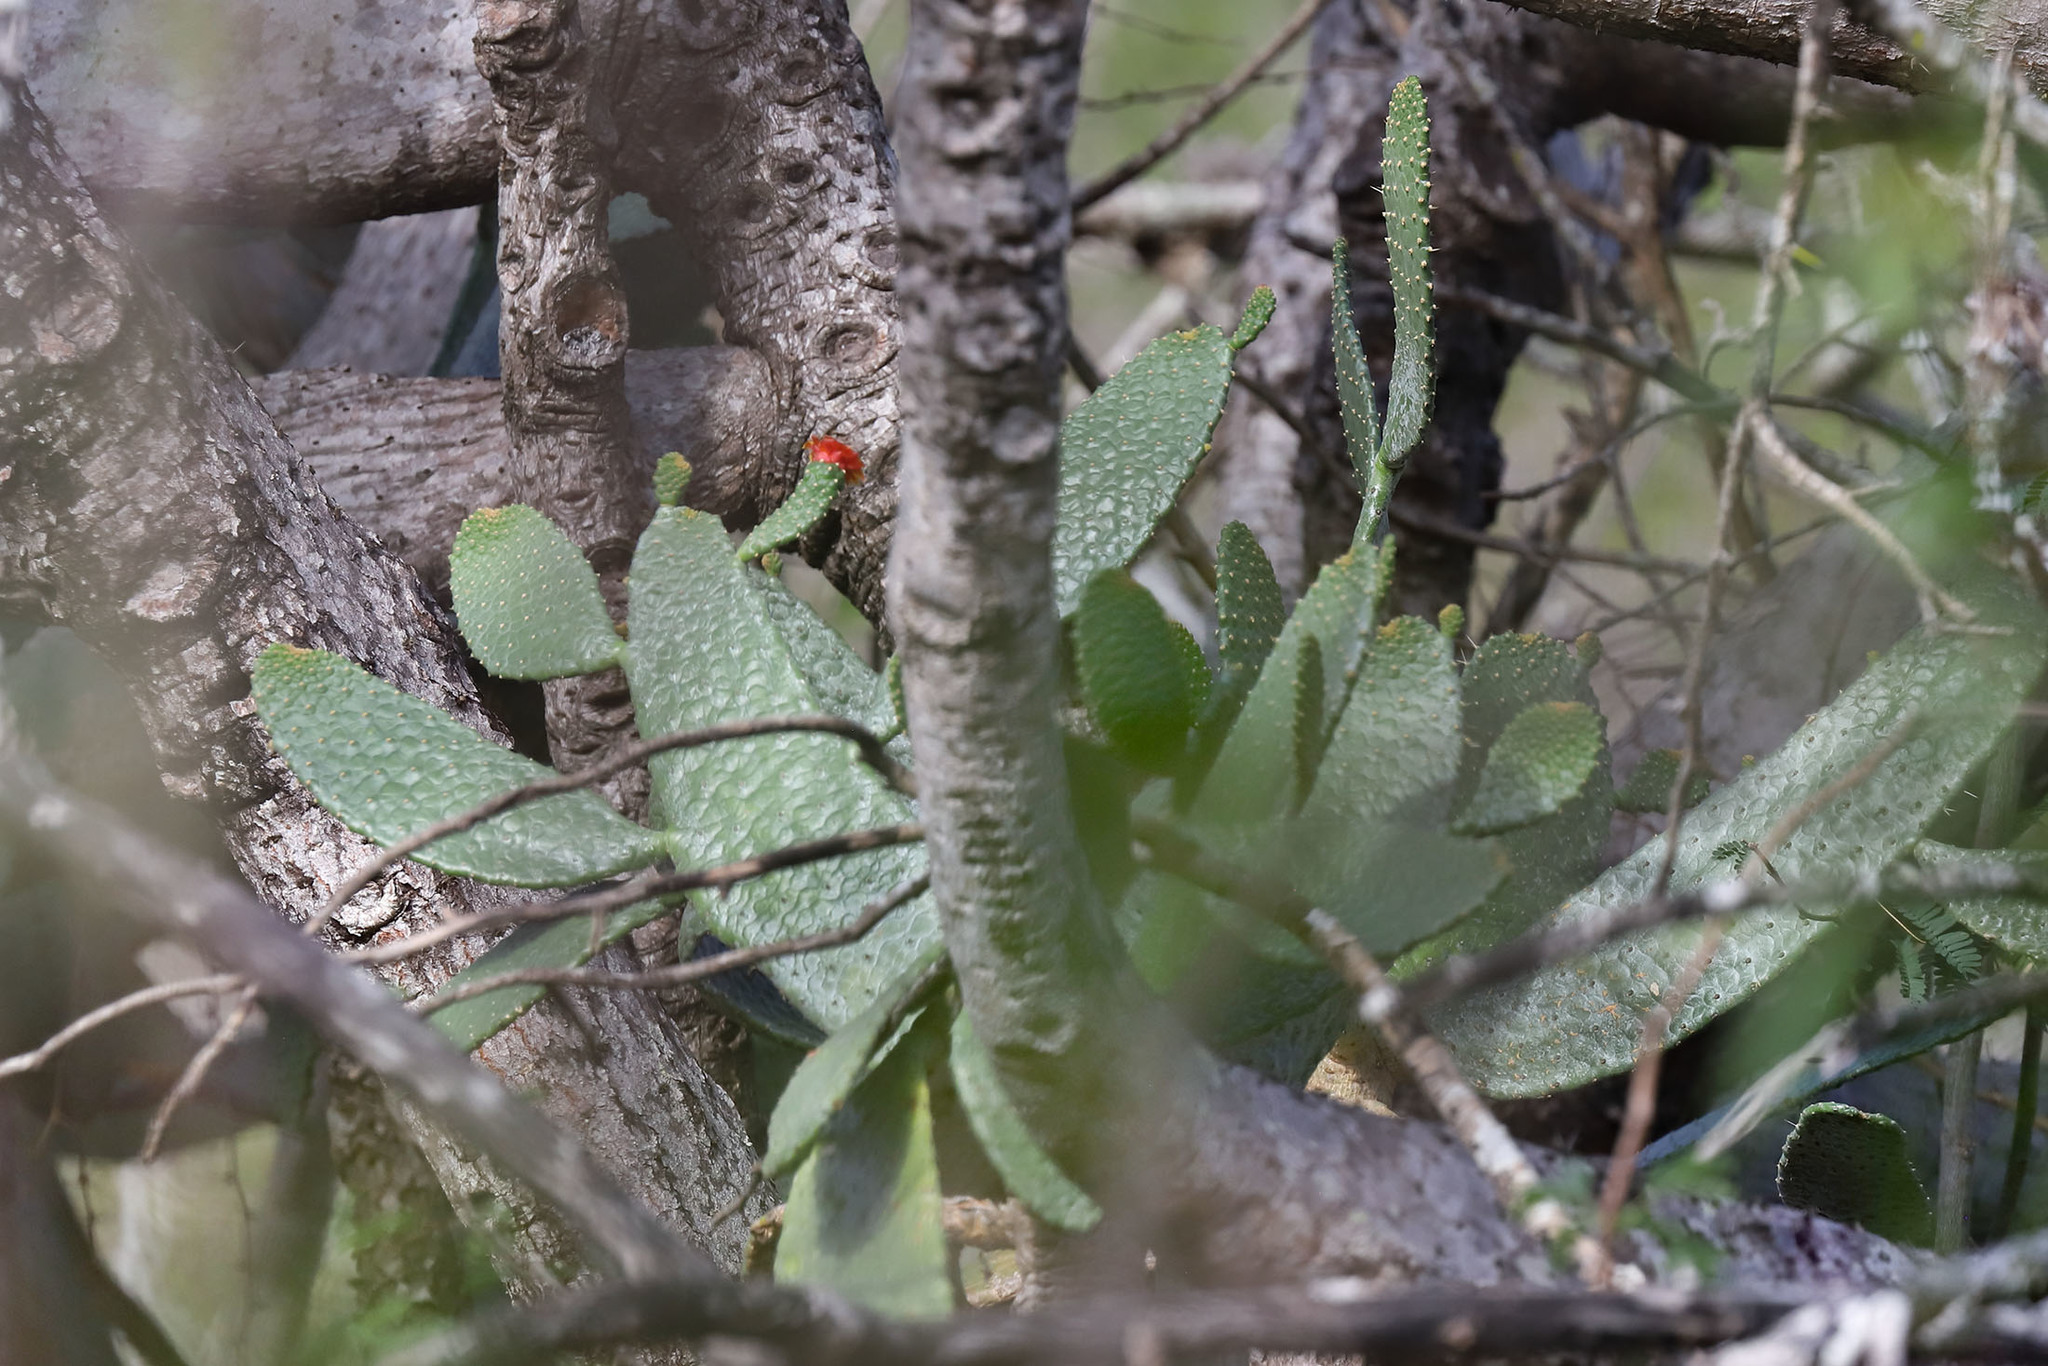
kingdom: Plantae
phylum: Tracheophyta
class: Magnoliopsida
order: Caryophyllales
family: Cactaceae
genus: Consolea
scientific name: Consolea moniliformis
